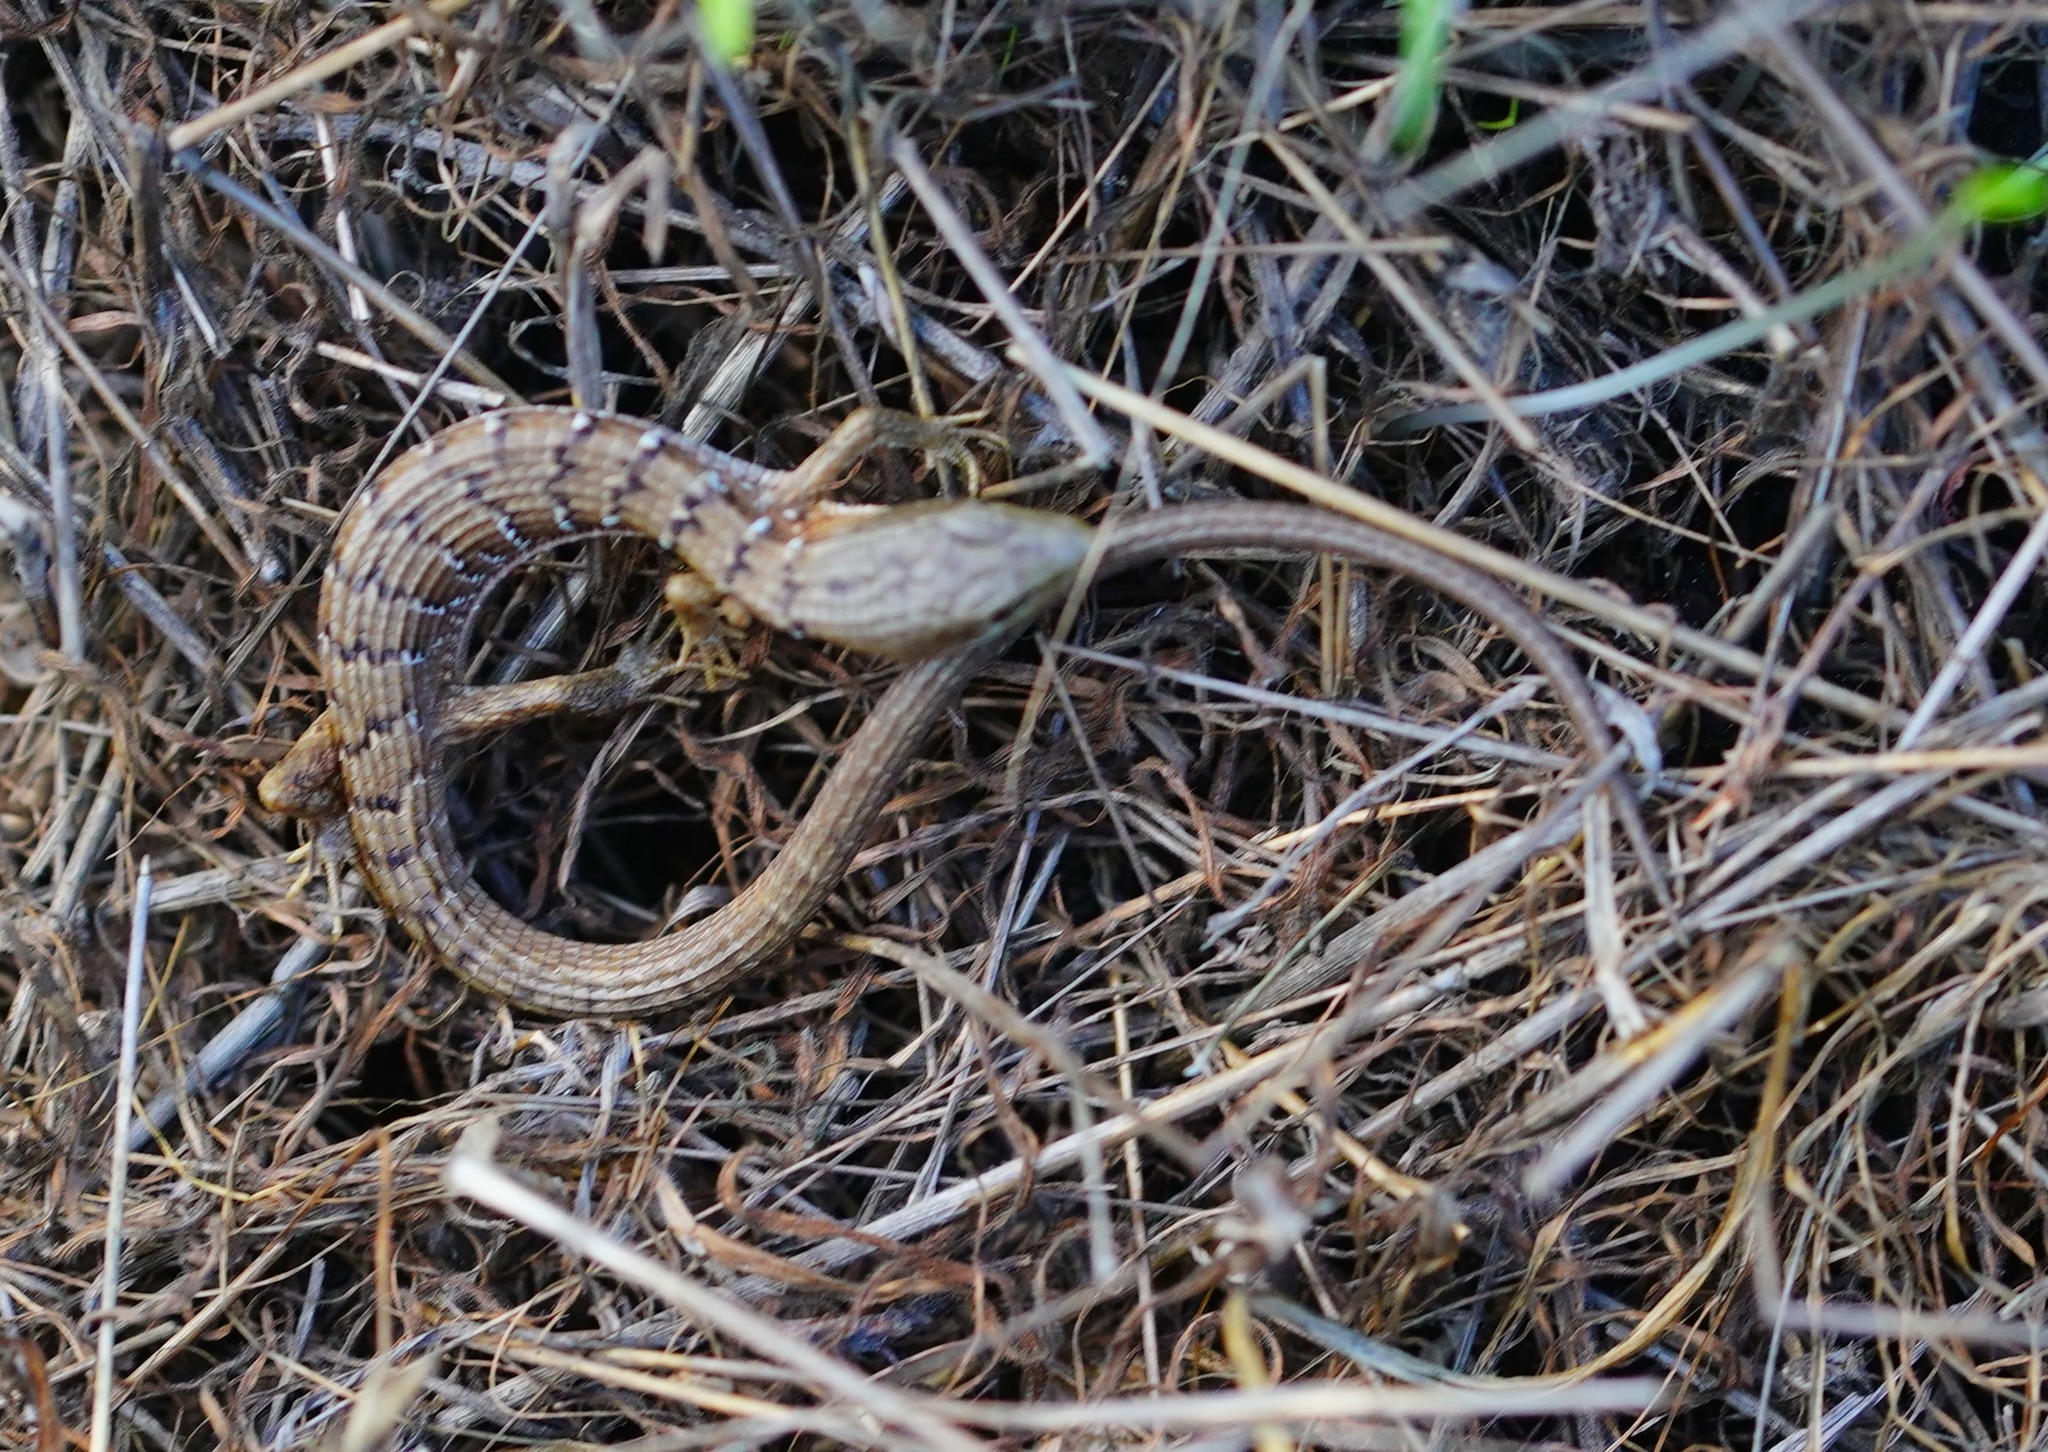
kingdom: Animalia
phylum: Chordata
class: Squamata
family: Anguidae
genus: Elgaria
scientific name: Elgaria multicarinata
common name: Southern alligator lizard
